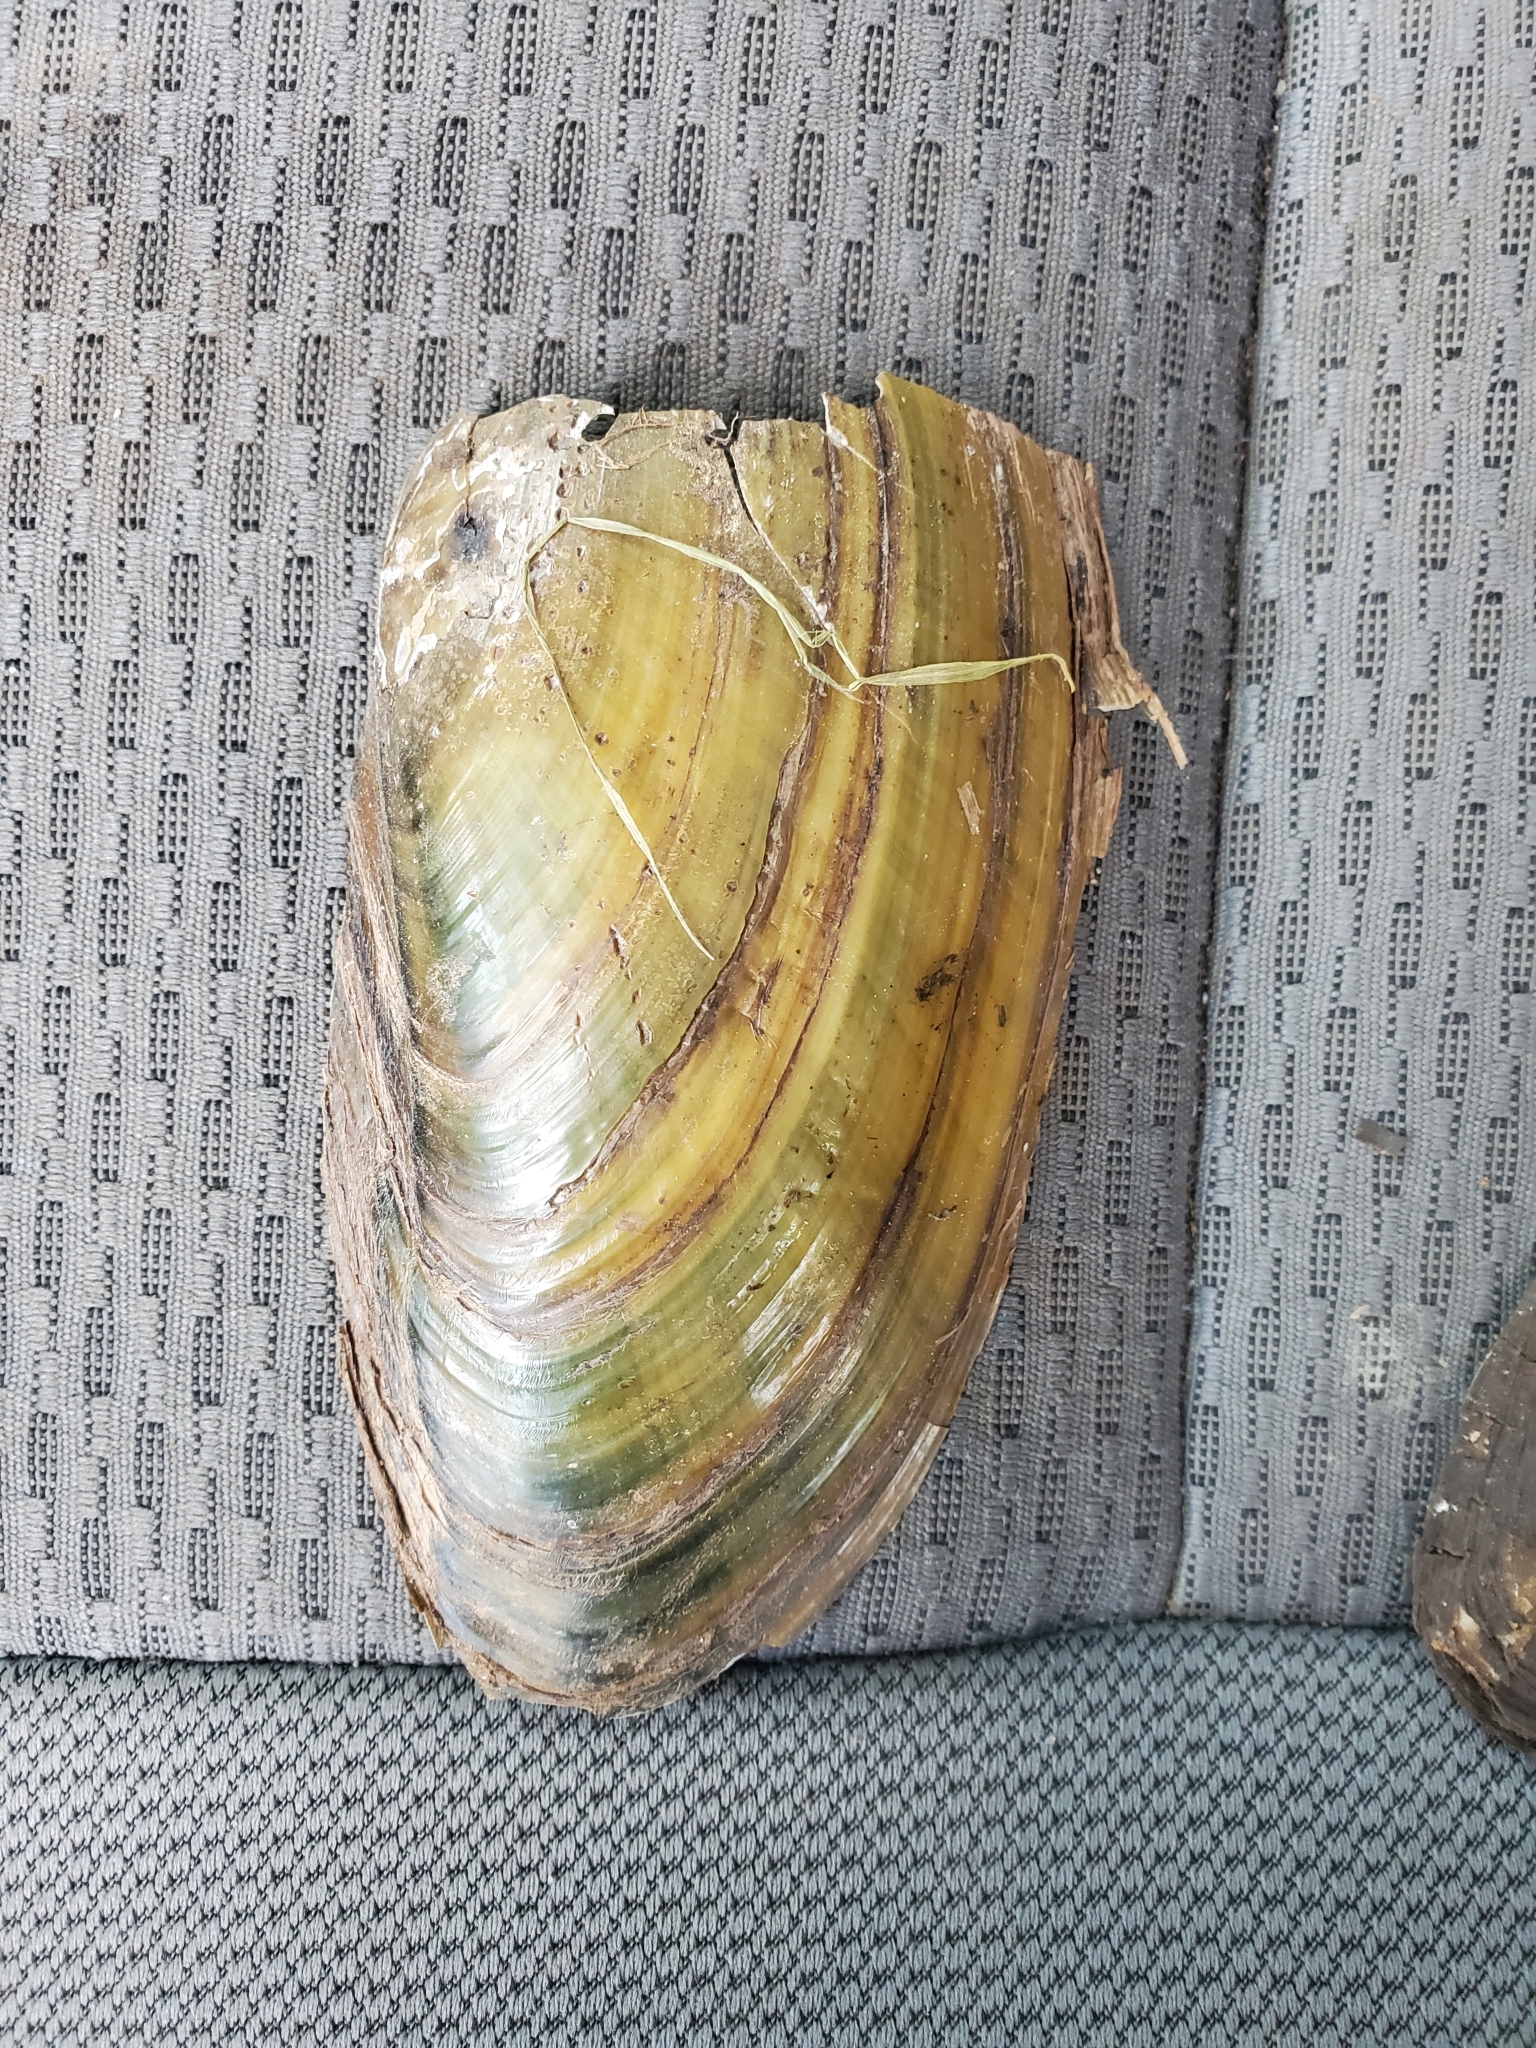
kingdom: Animalia
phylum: Mollusca
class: Bivalvia
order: Unionida
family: Unionidae
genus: Pyganodon
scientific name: Pyganodon cataracta
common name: Eastern floater
